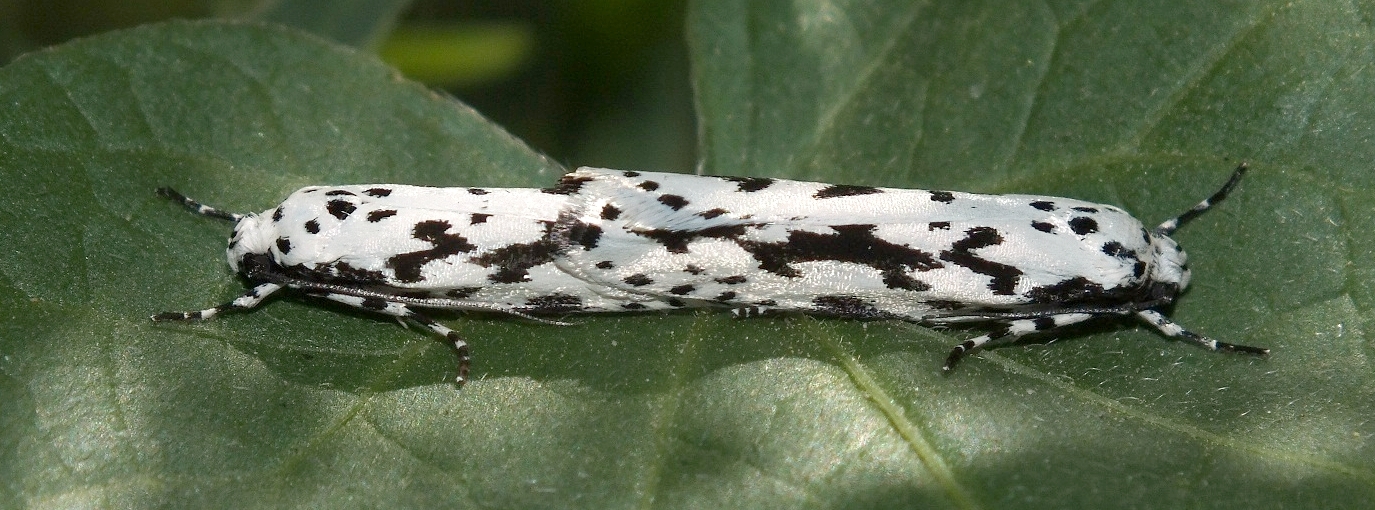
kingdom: Animalia
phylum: Arthropoda
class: Insecta
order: Lepidoptera
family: Ethmiidae
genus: Ethmia
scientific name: Ethmia candidella
